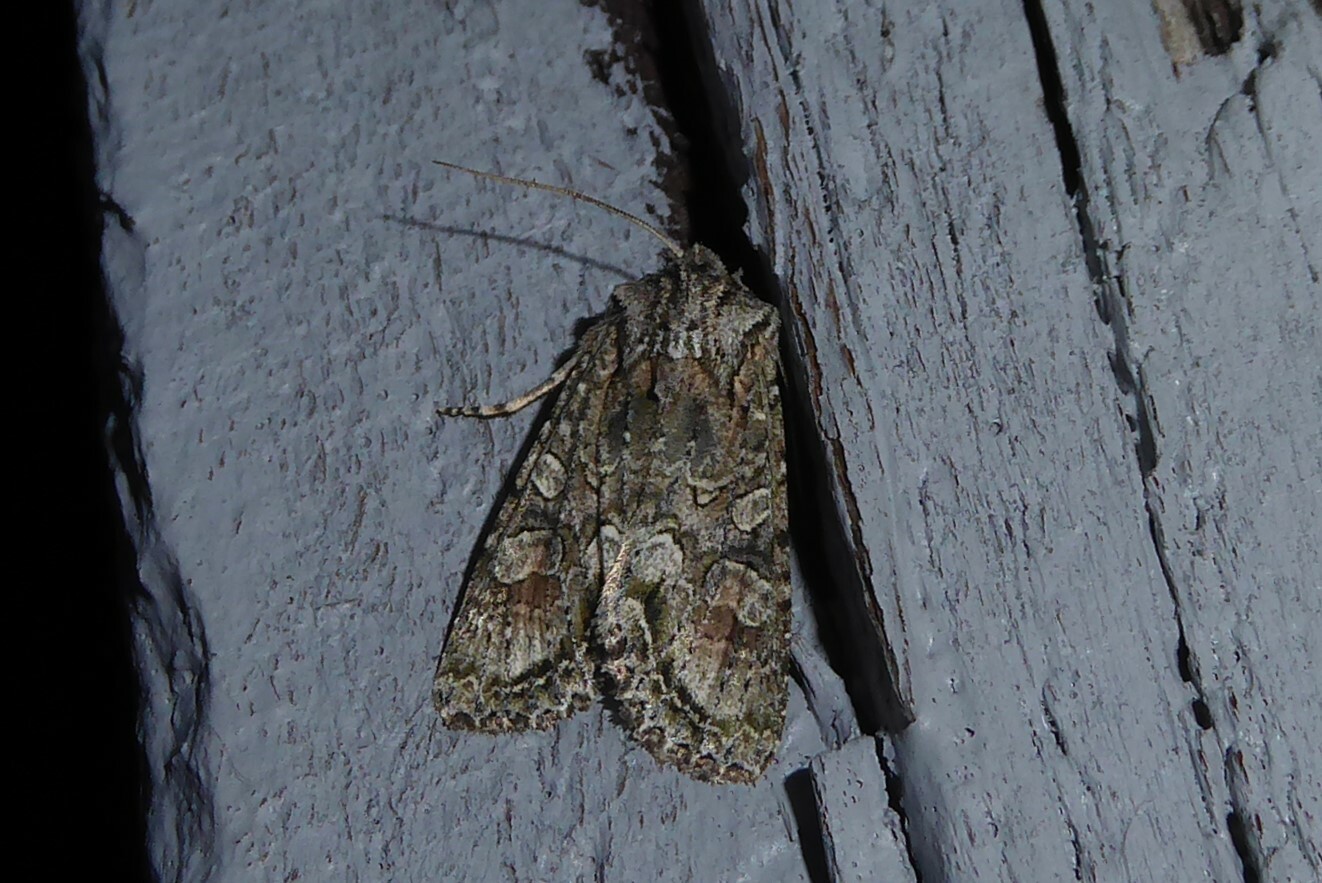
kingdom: Animalia
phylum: Arthropoda
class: Insecta
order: Lepidoptera
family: Noctuidae
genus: Ichneutica
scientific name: Ichneutica mutans
